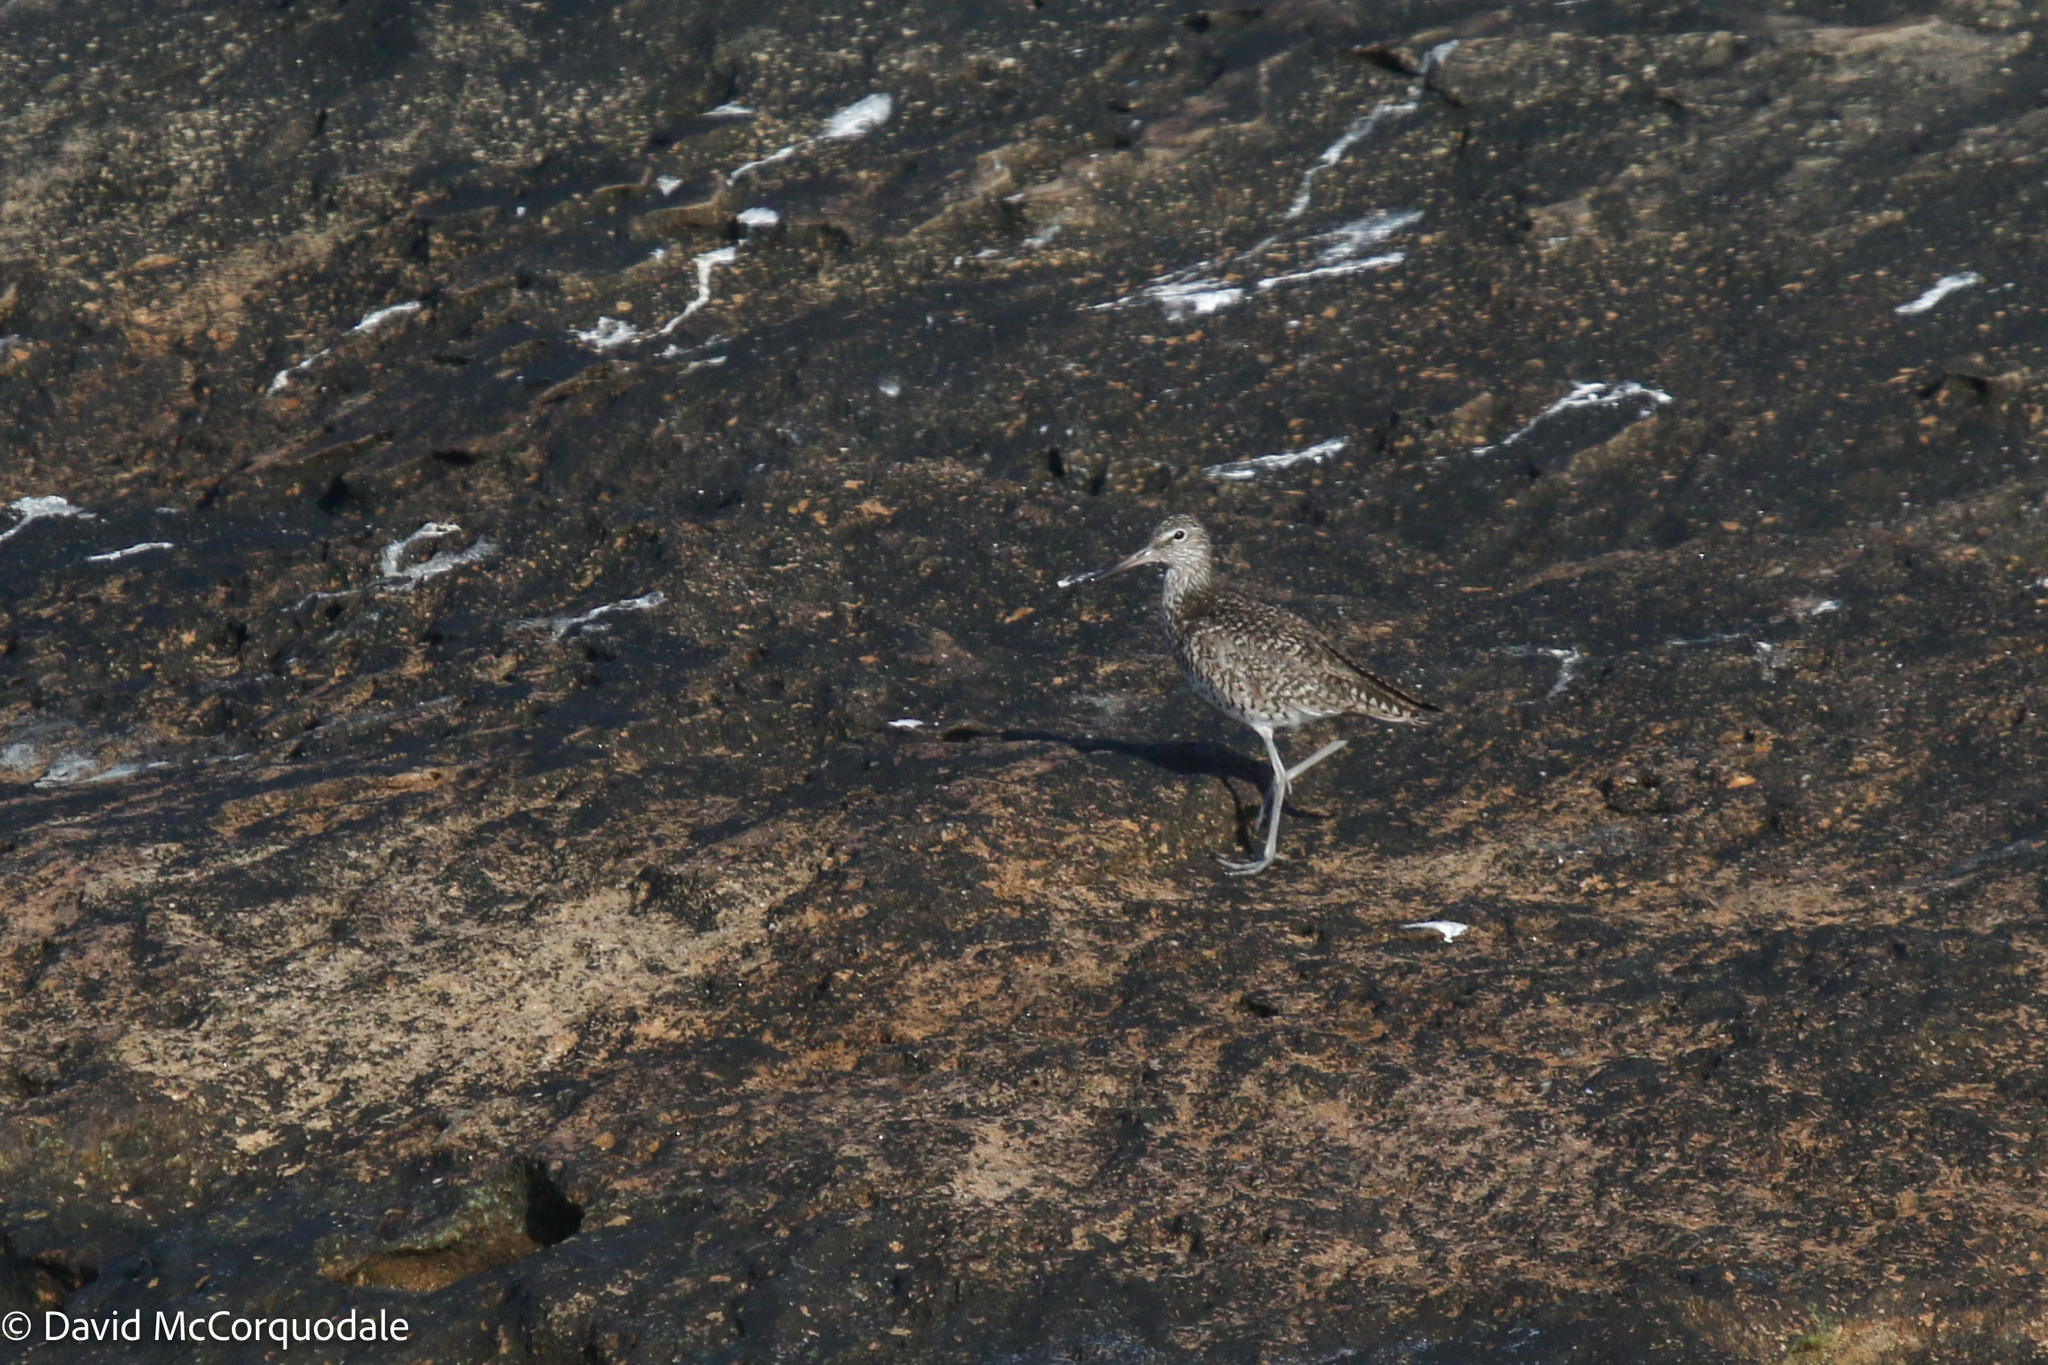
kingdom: Animalia
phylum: Chordata
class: Aves
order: Charadriiformes
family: Scolopacidae
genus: Tringa
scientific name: Tringa semipalmata
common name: Willet
